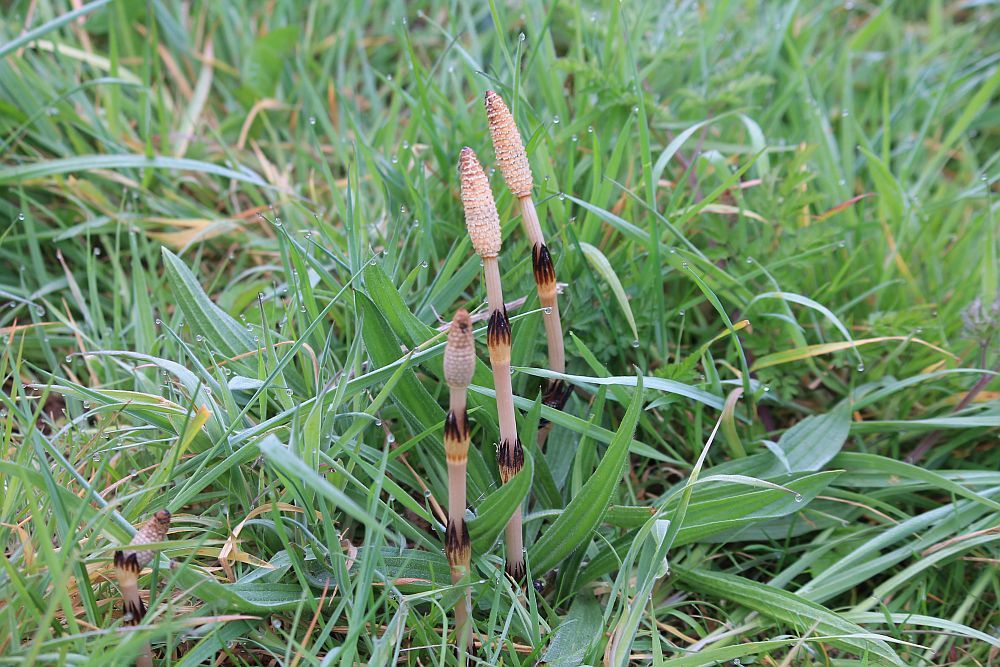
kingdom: Plantae
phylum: Tracheophyta
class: Polypodiopsida
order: Equisetales
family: Equisetaceae
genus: Equisetum
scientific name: Equisetum arvense
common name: Field horsetail
